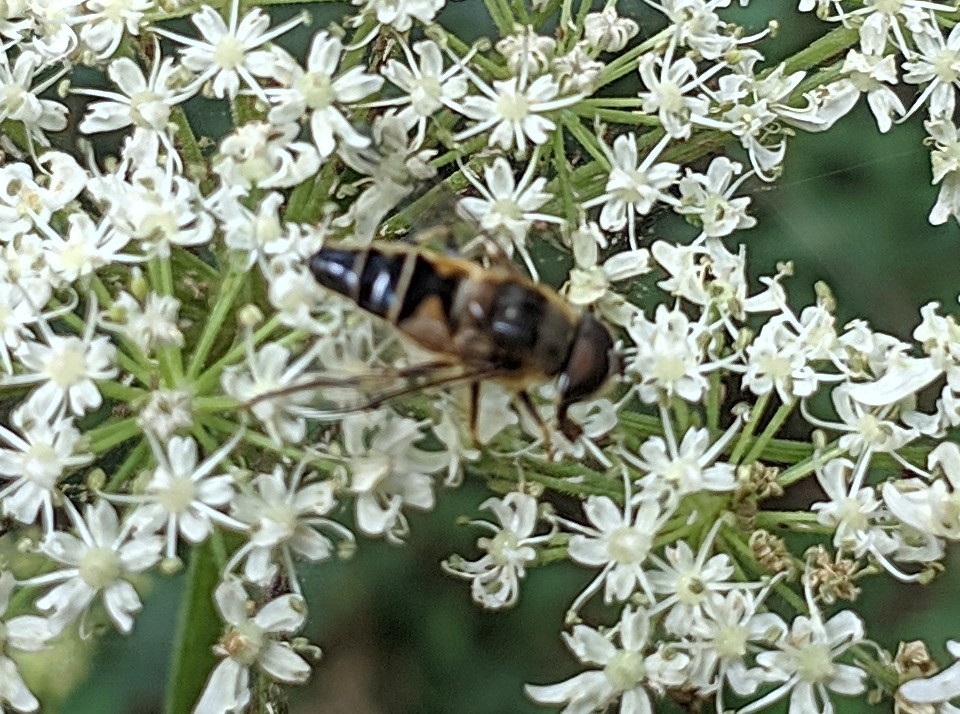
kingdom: Animalia
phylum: Arthropoda
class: Insecta
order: Diptera
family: Syrphidae
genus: Eristalis
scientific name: Eristalis pertinax
